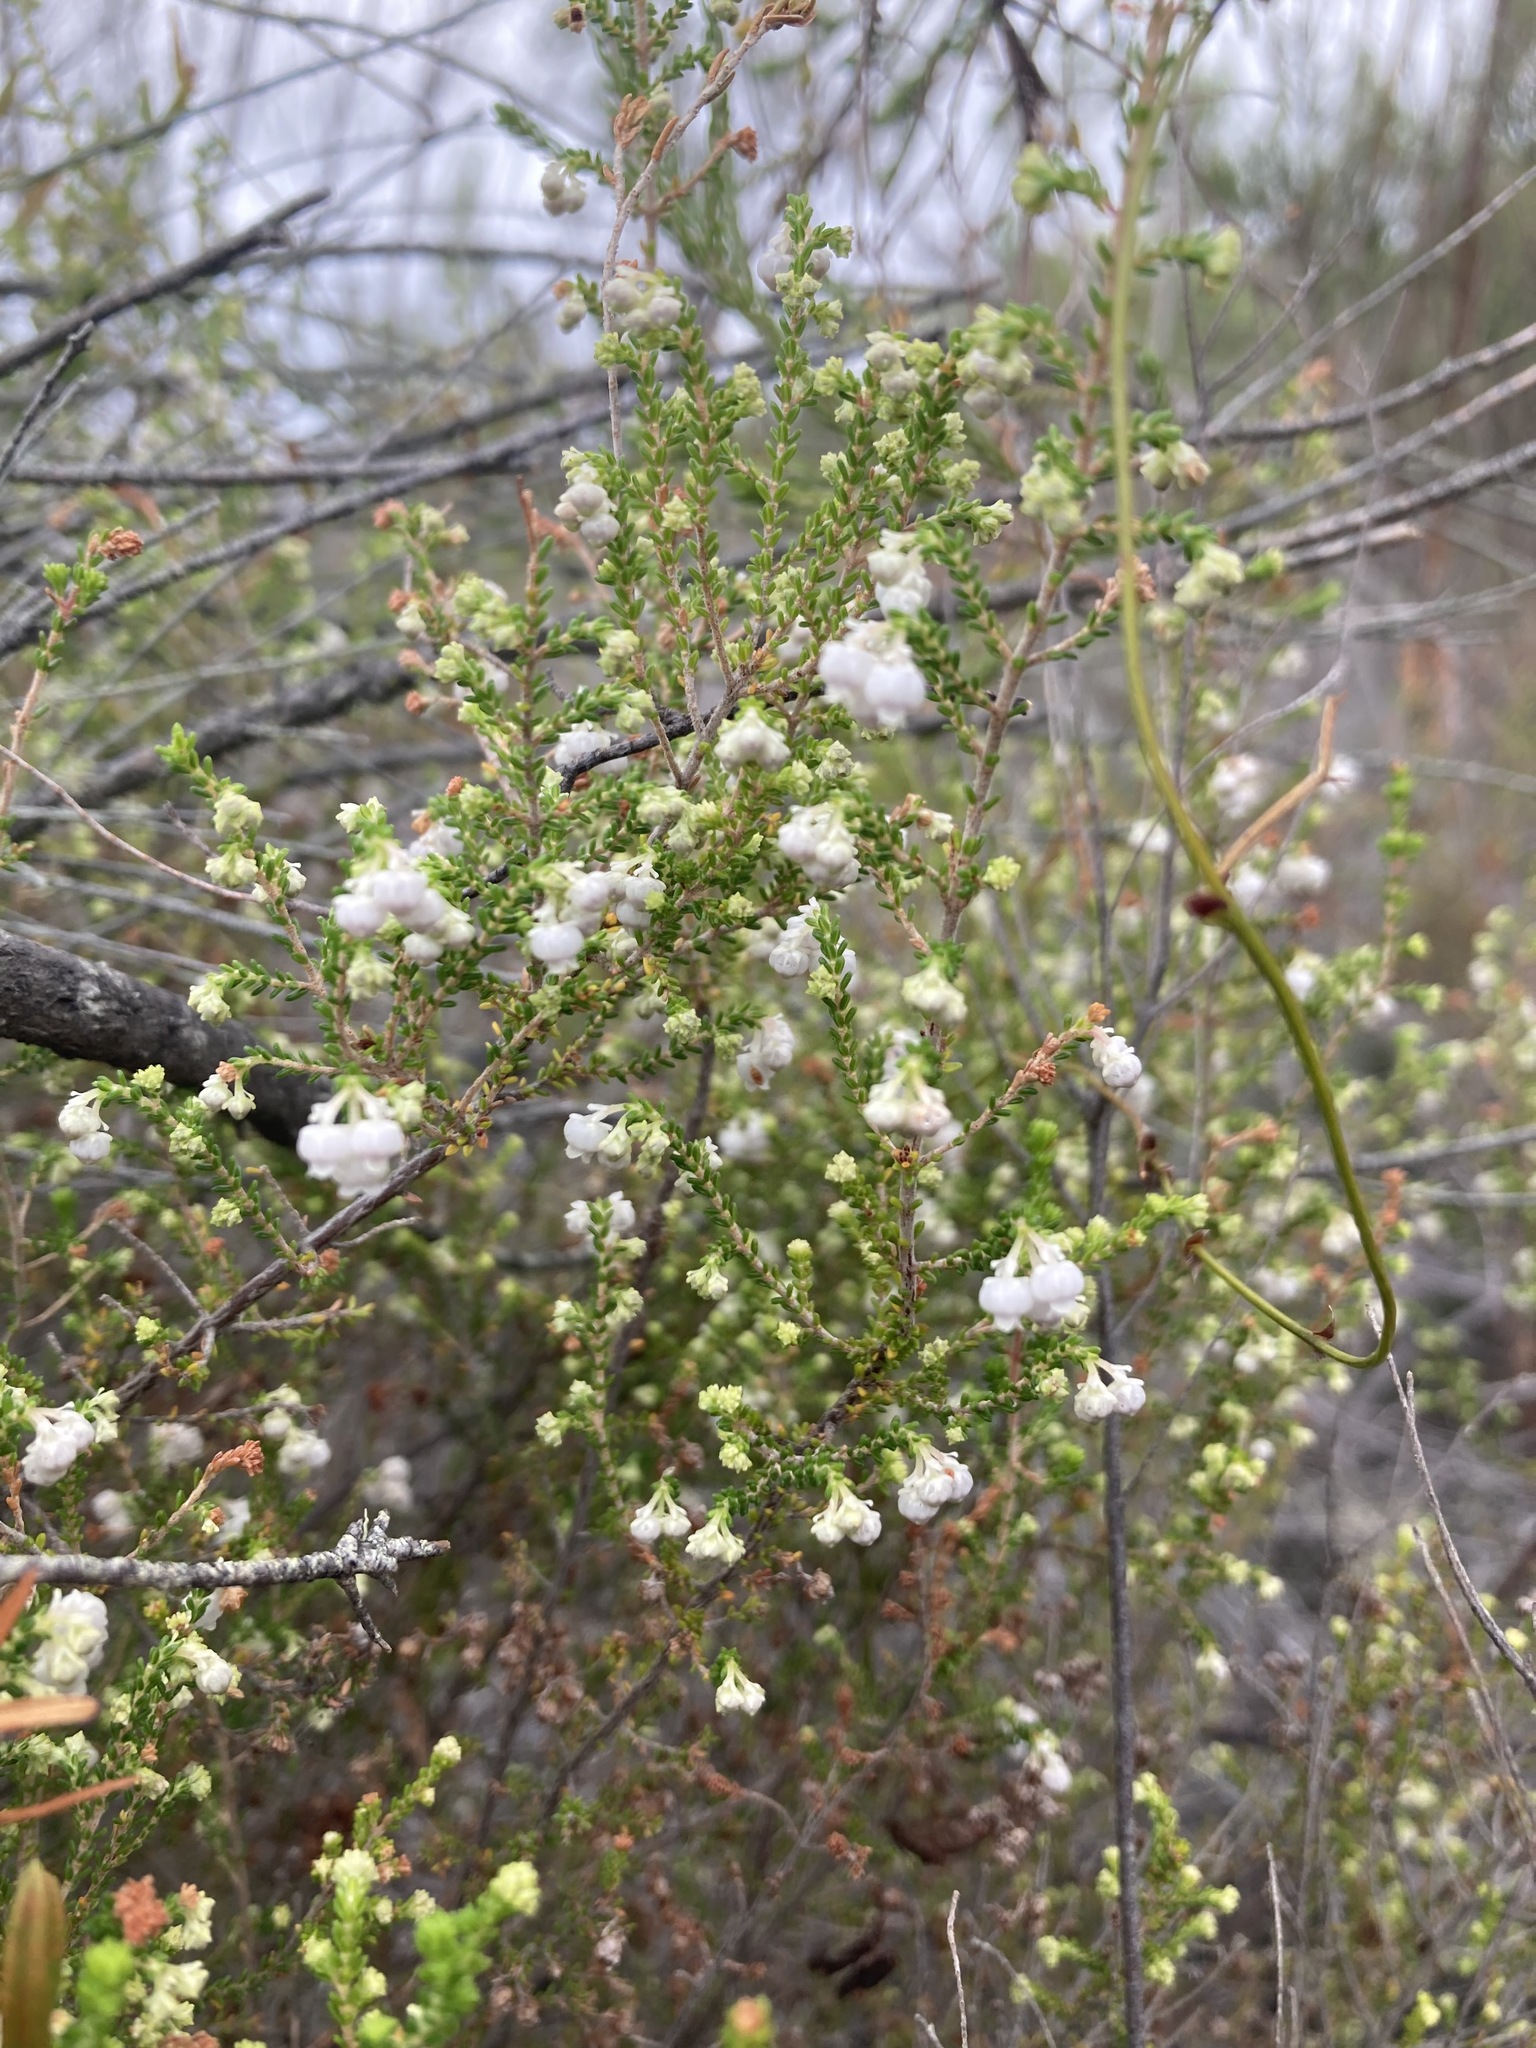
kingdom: Plantae
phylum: Tracheophyta
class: Magnoliopsida
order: Ericales
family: Ericaceae
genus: Erica
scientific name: Erica formosa
